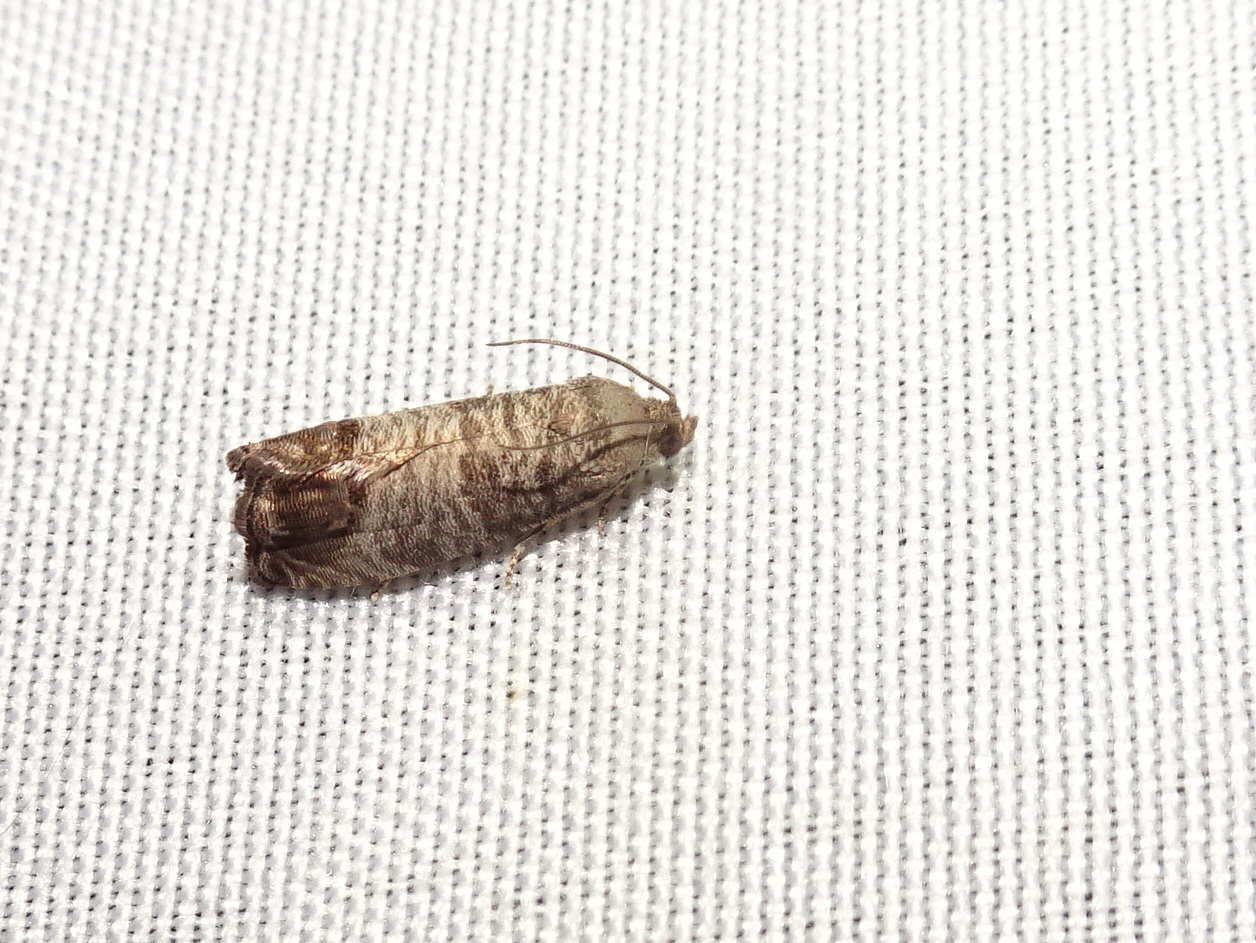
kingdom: Animalia
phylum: Arthropoda
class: Insecta
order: Lepidoptera
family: Tortricidae
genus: Cydia
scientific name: Cydia pomonella
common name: Codling moth
